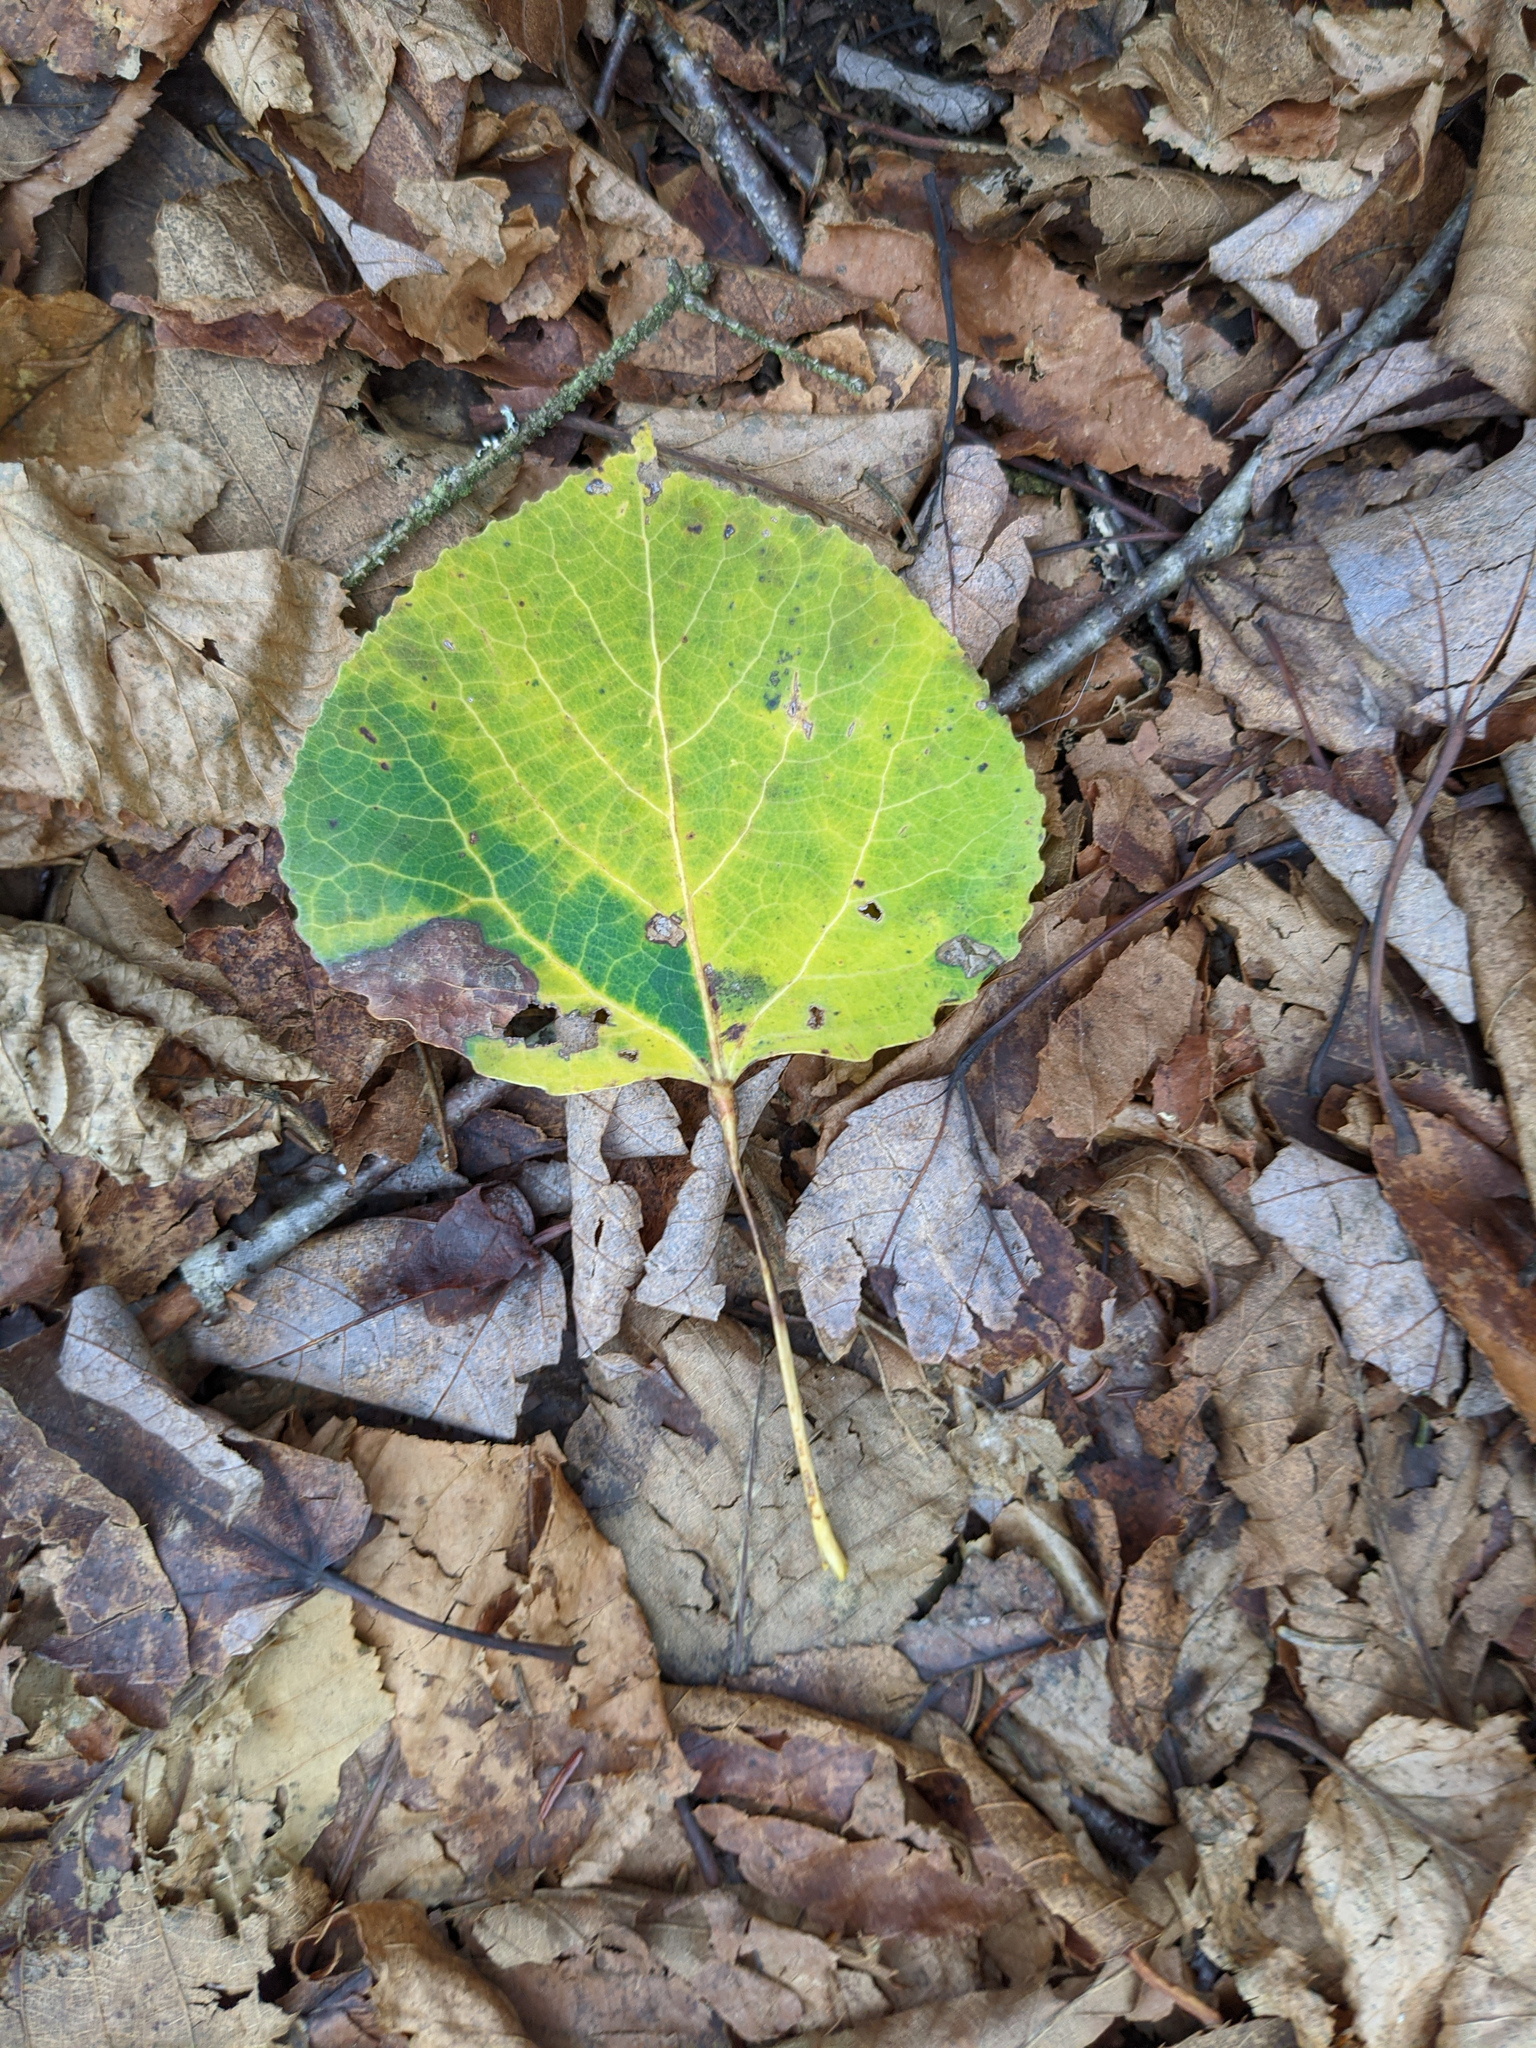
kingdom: Plantae
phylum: Tracheophyta
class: Magnoliopsida
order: Malpighiales
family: Salicaceae
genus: Populus
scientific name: Populus tremuloides
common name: Quaking aspen
